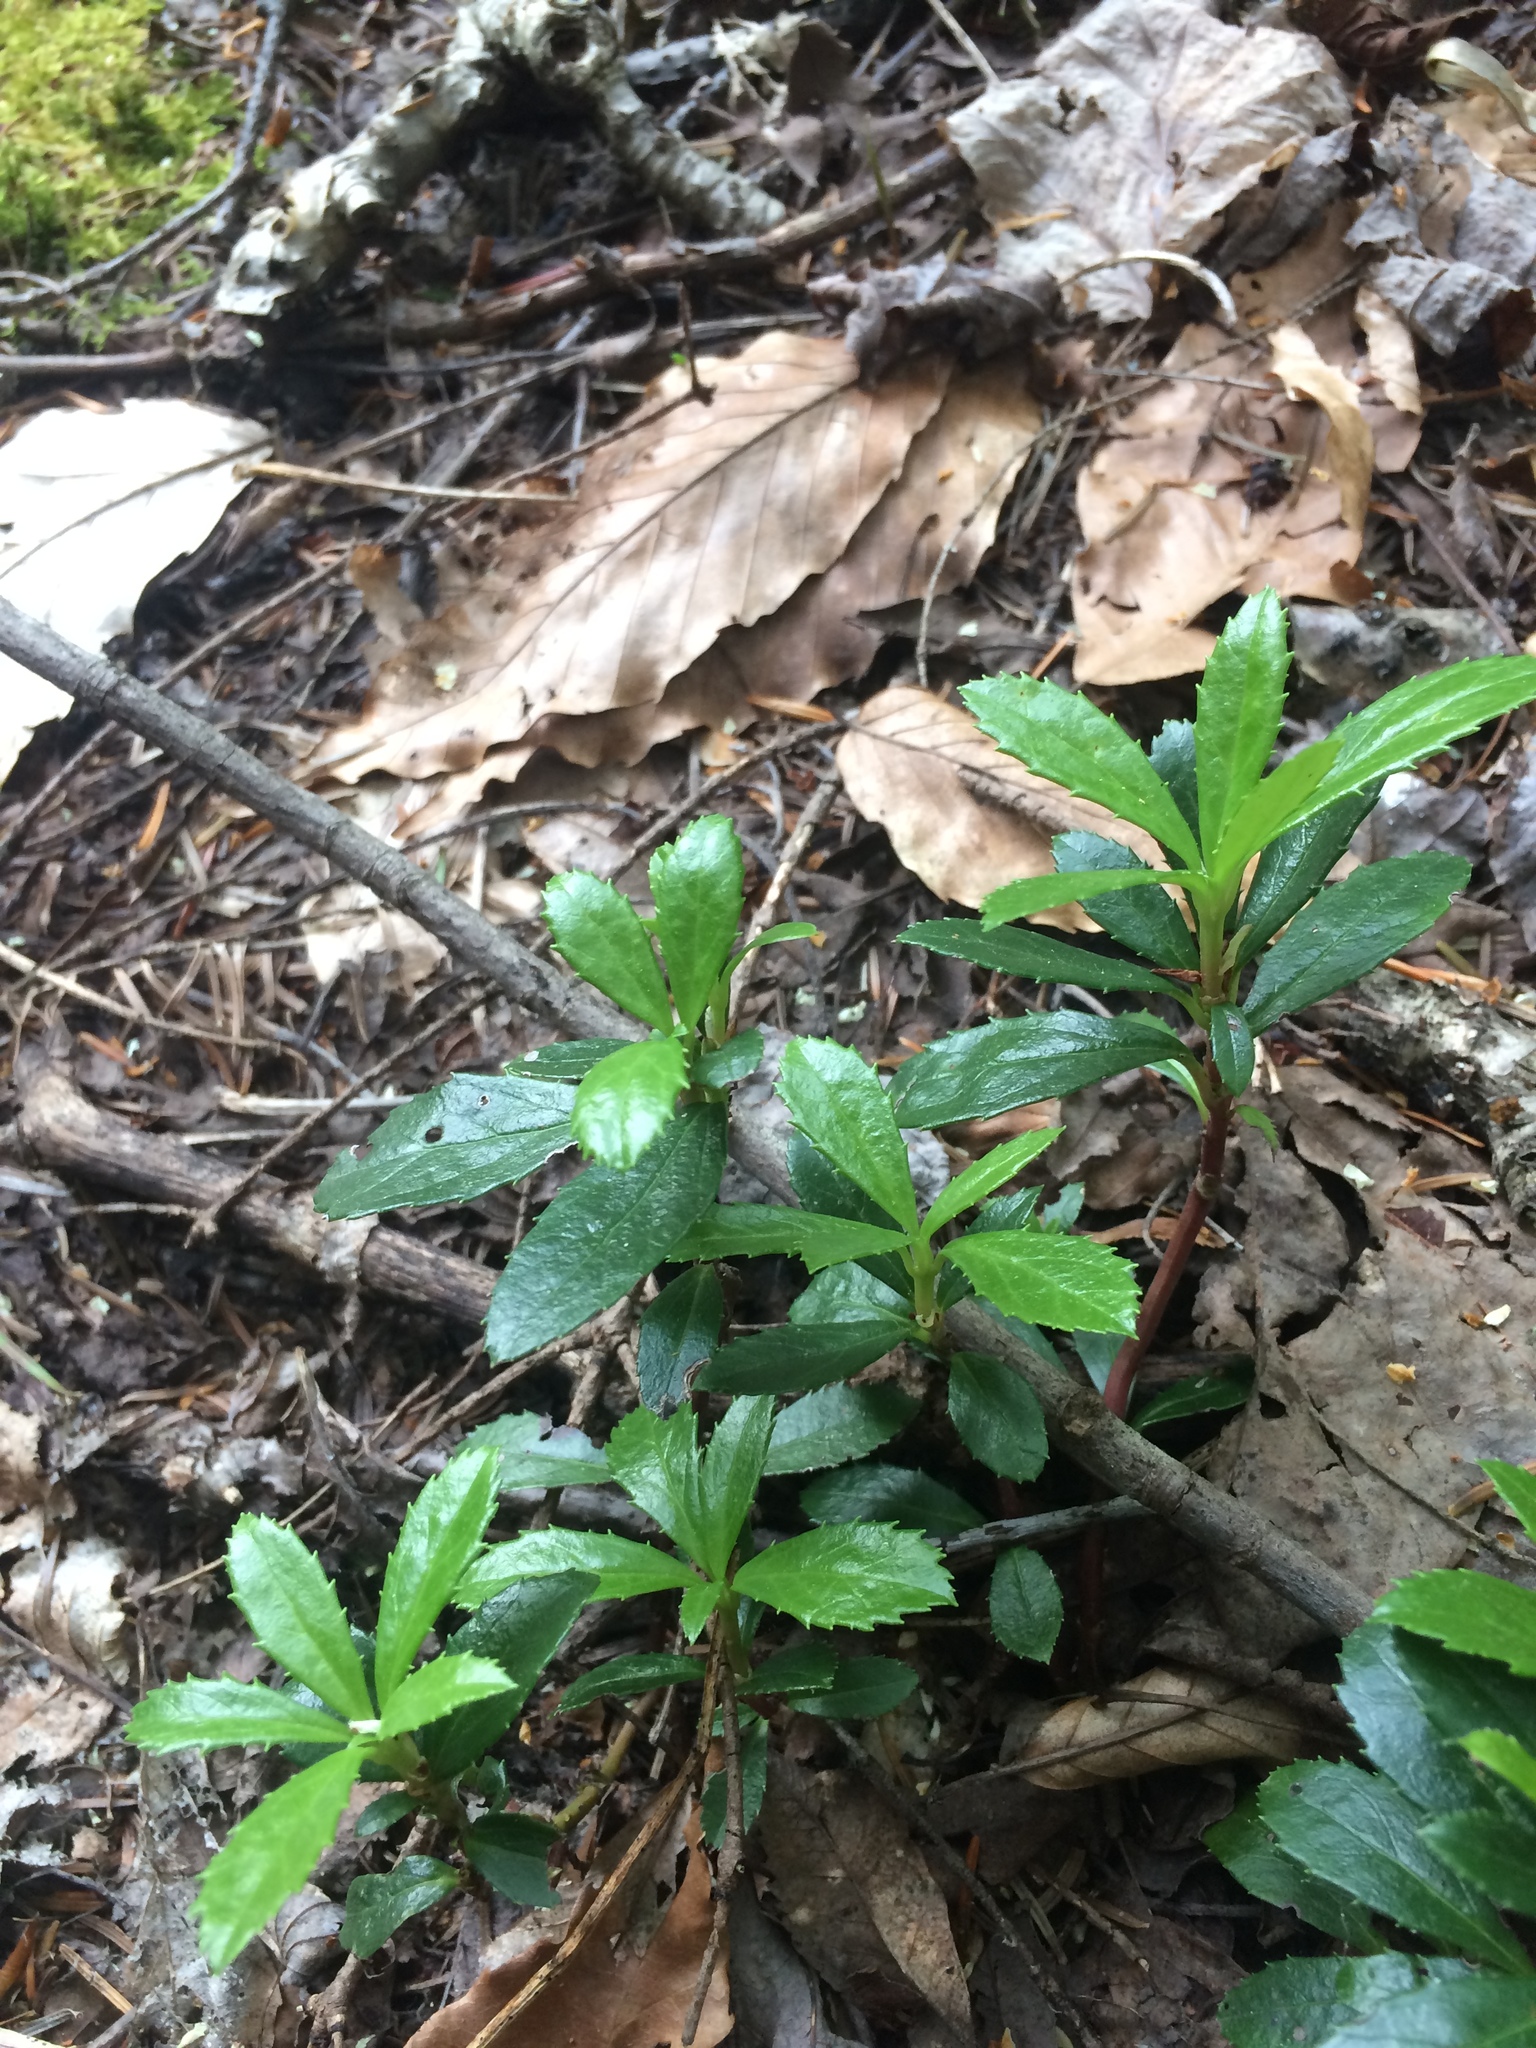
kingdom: Plantae
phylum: Tracheophyta
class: Magnoliopsida
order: Ericales
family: Ericaceae
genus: Chimaphila
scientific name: Chimaphila umbellata
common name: Pipsissewa
